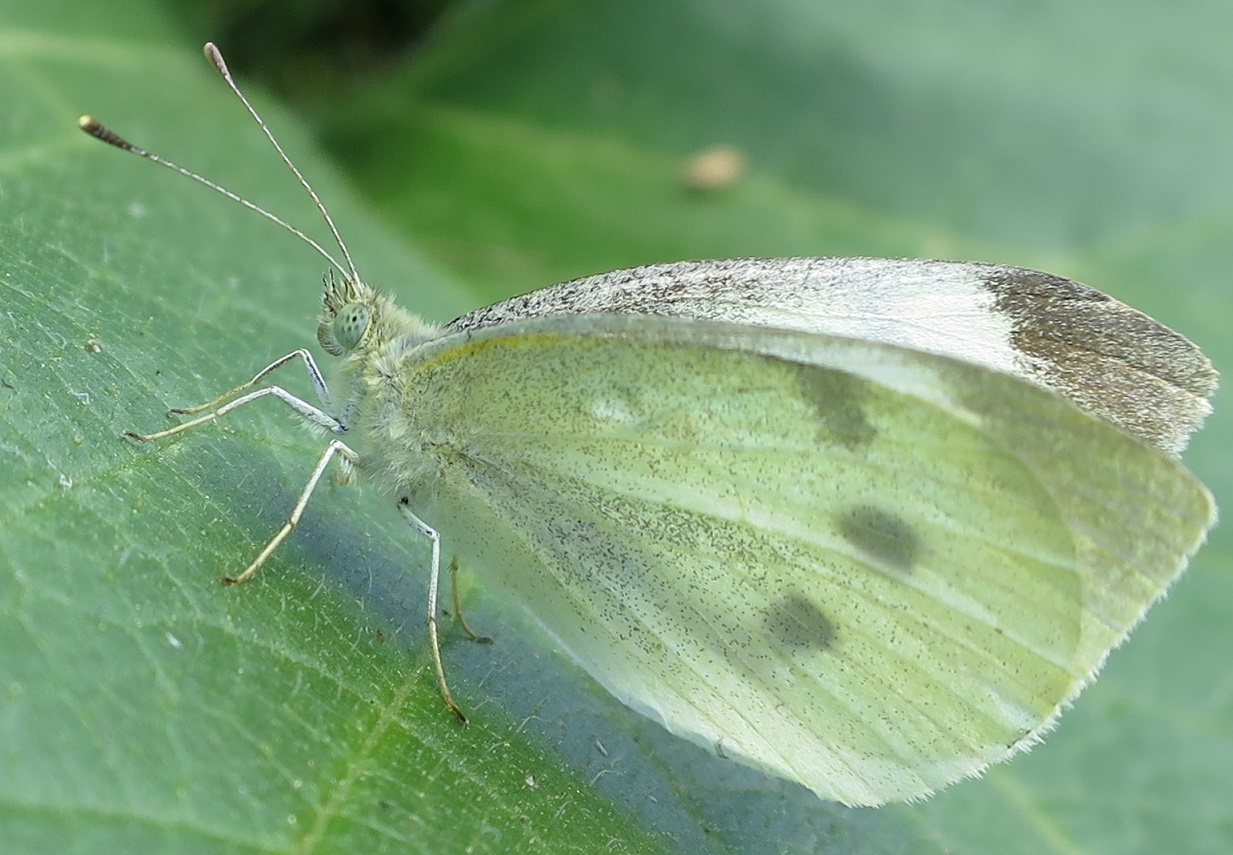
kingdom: Animalia
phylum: Arthropoda
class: Insecta
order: Lepidoptera
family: Pieridae
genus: Pieris
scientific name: Pieris rapae
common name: Small white
